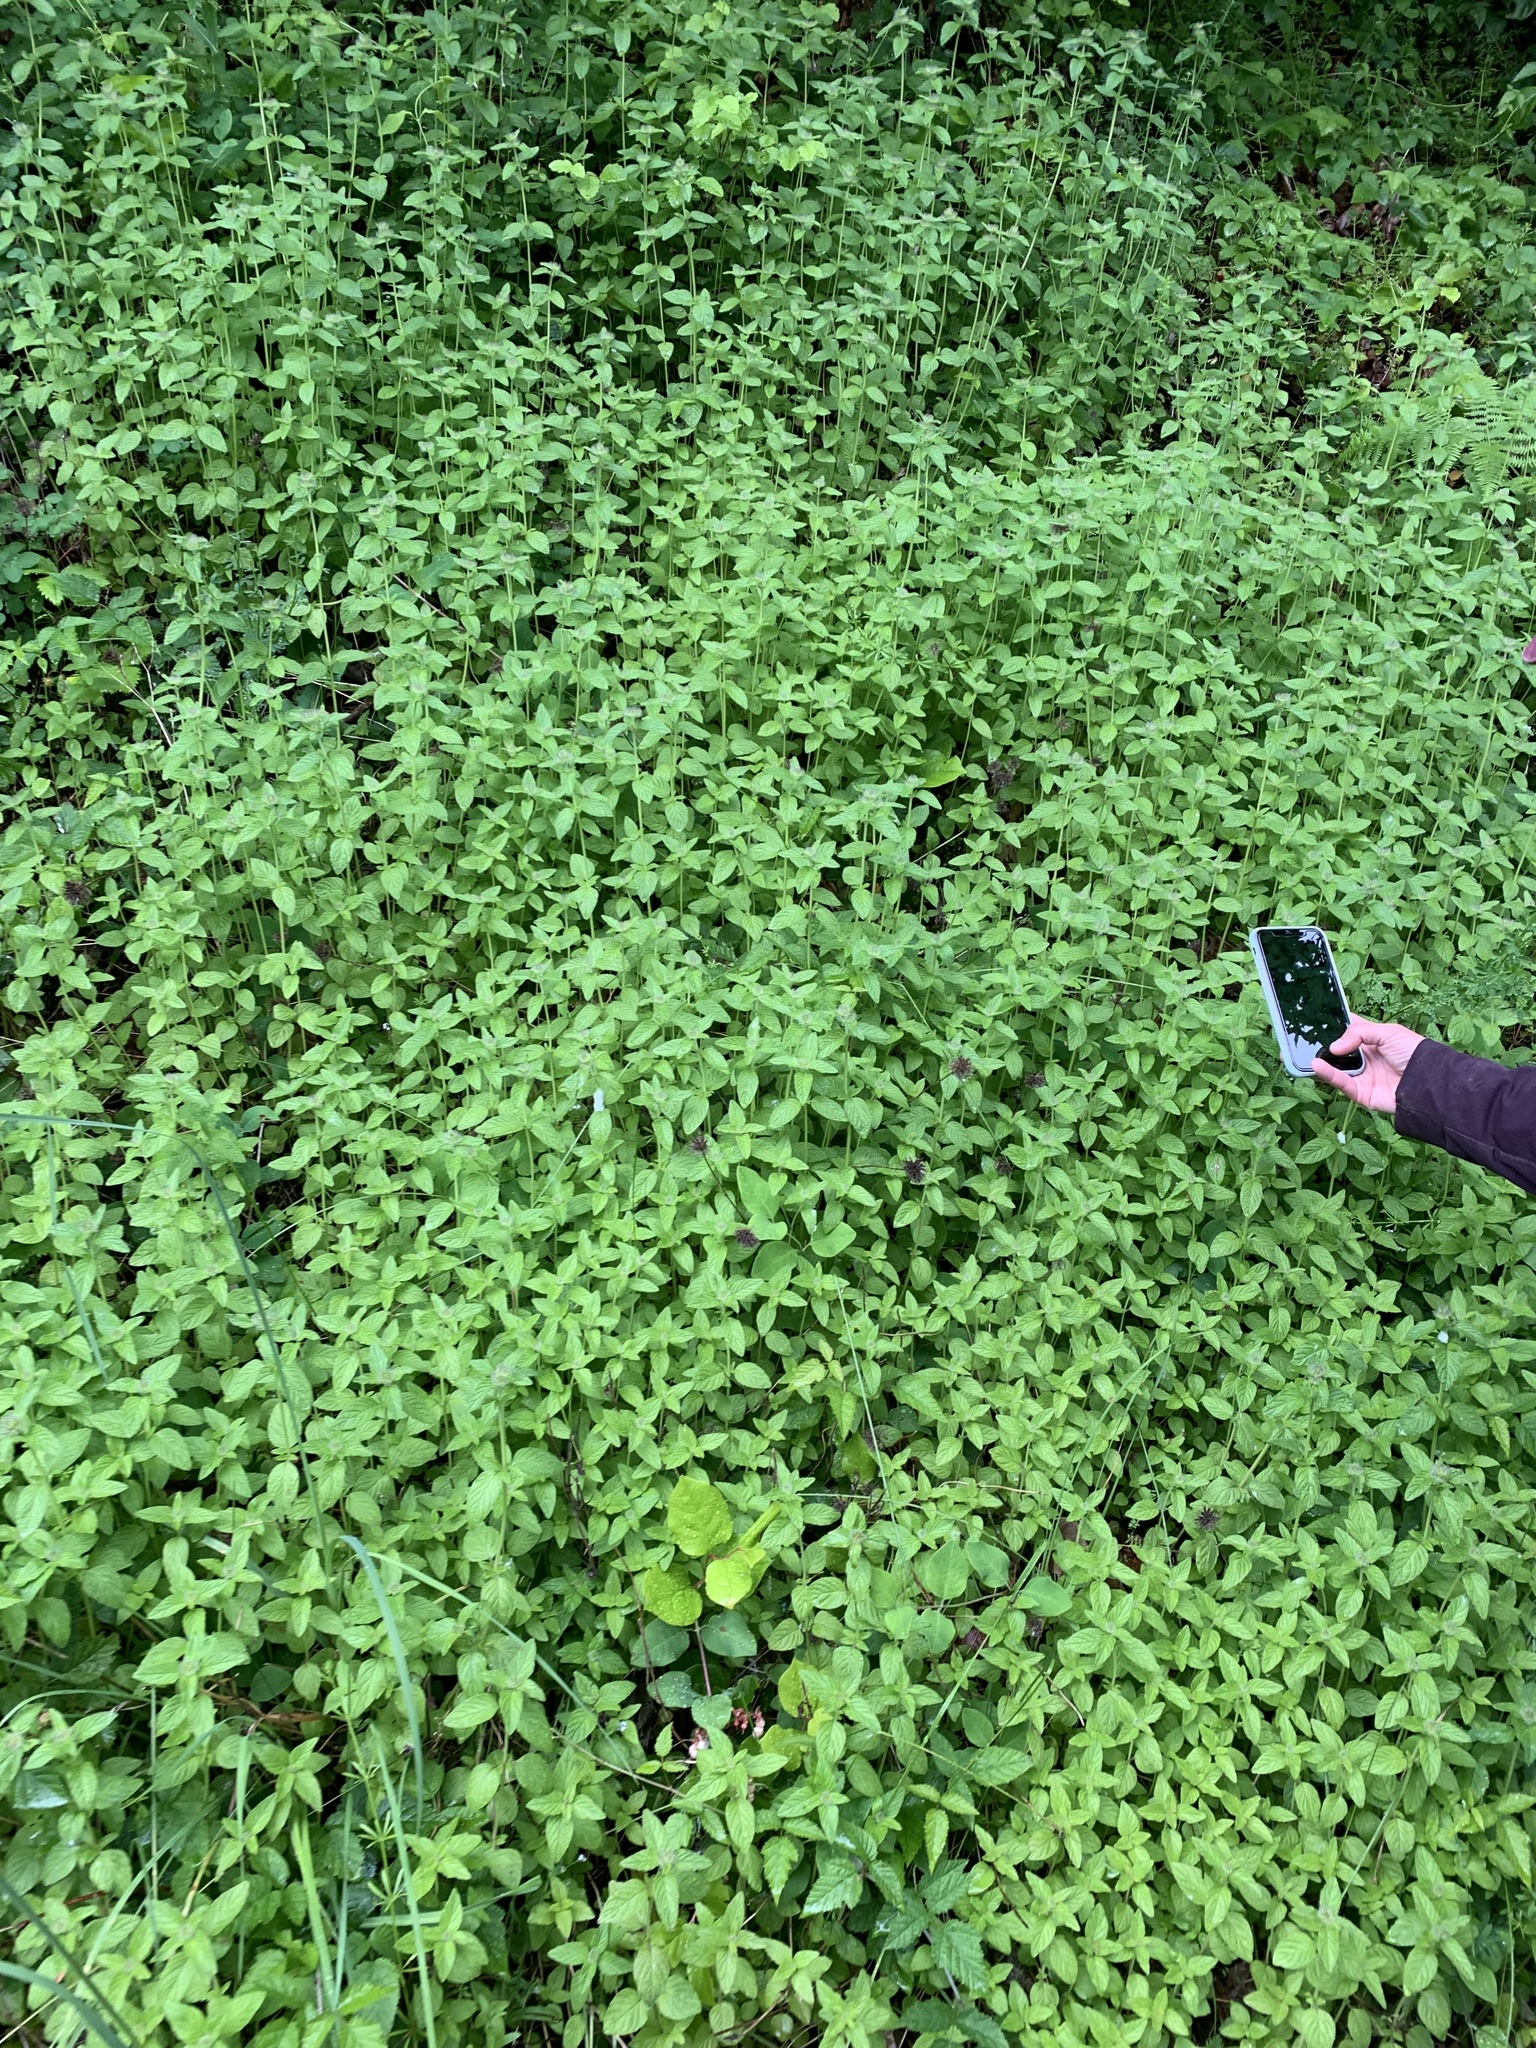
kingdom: Plantae
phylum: Tracheophyta
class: Magnoliopsida
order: Lamiales
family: Lamiaceae
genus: Clinopodium
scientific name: Clinopodium vulgare
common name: Wild basil
